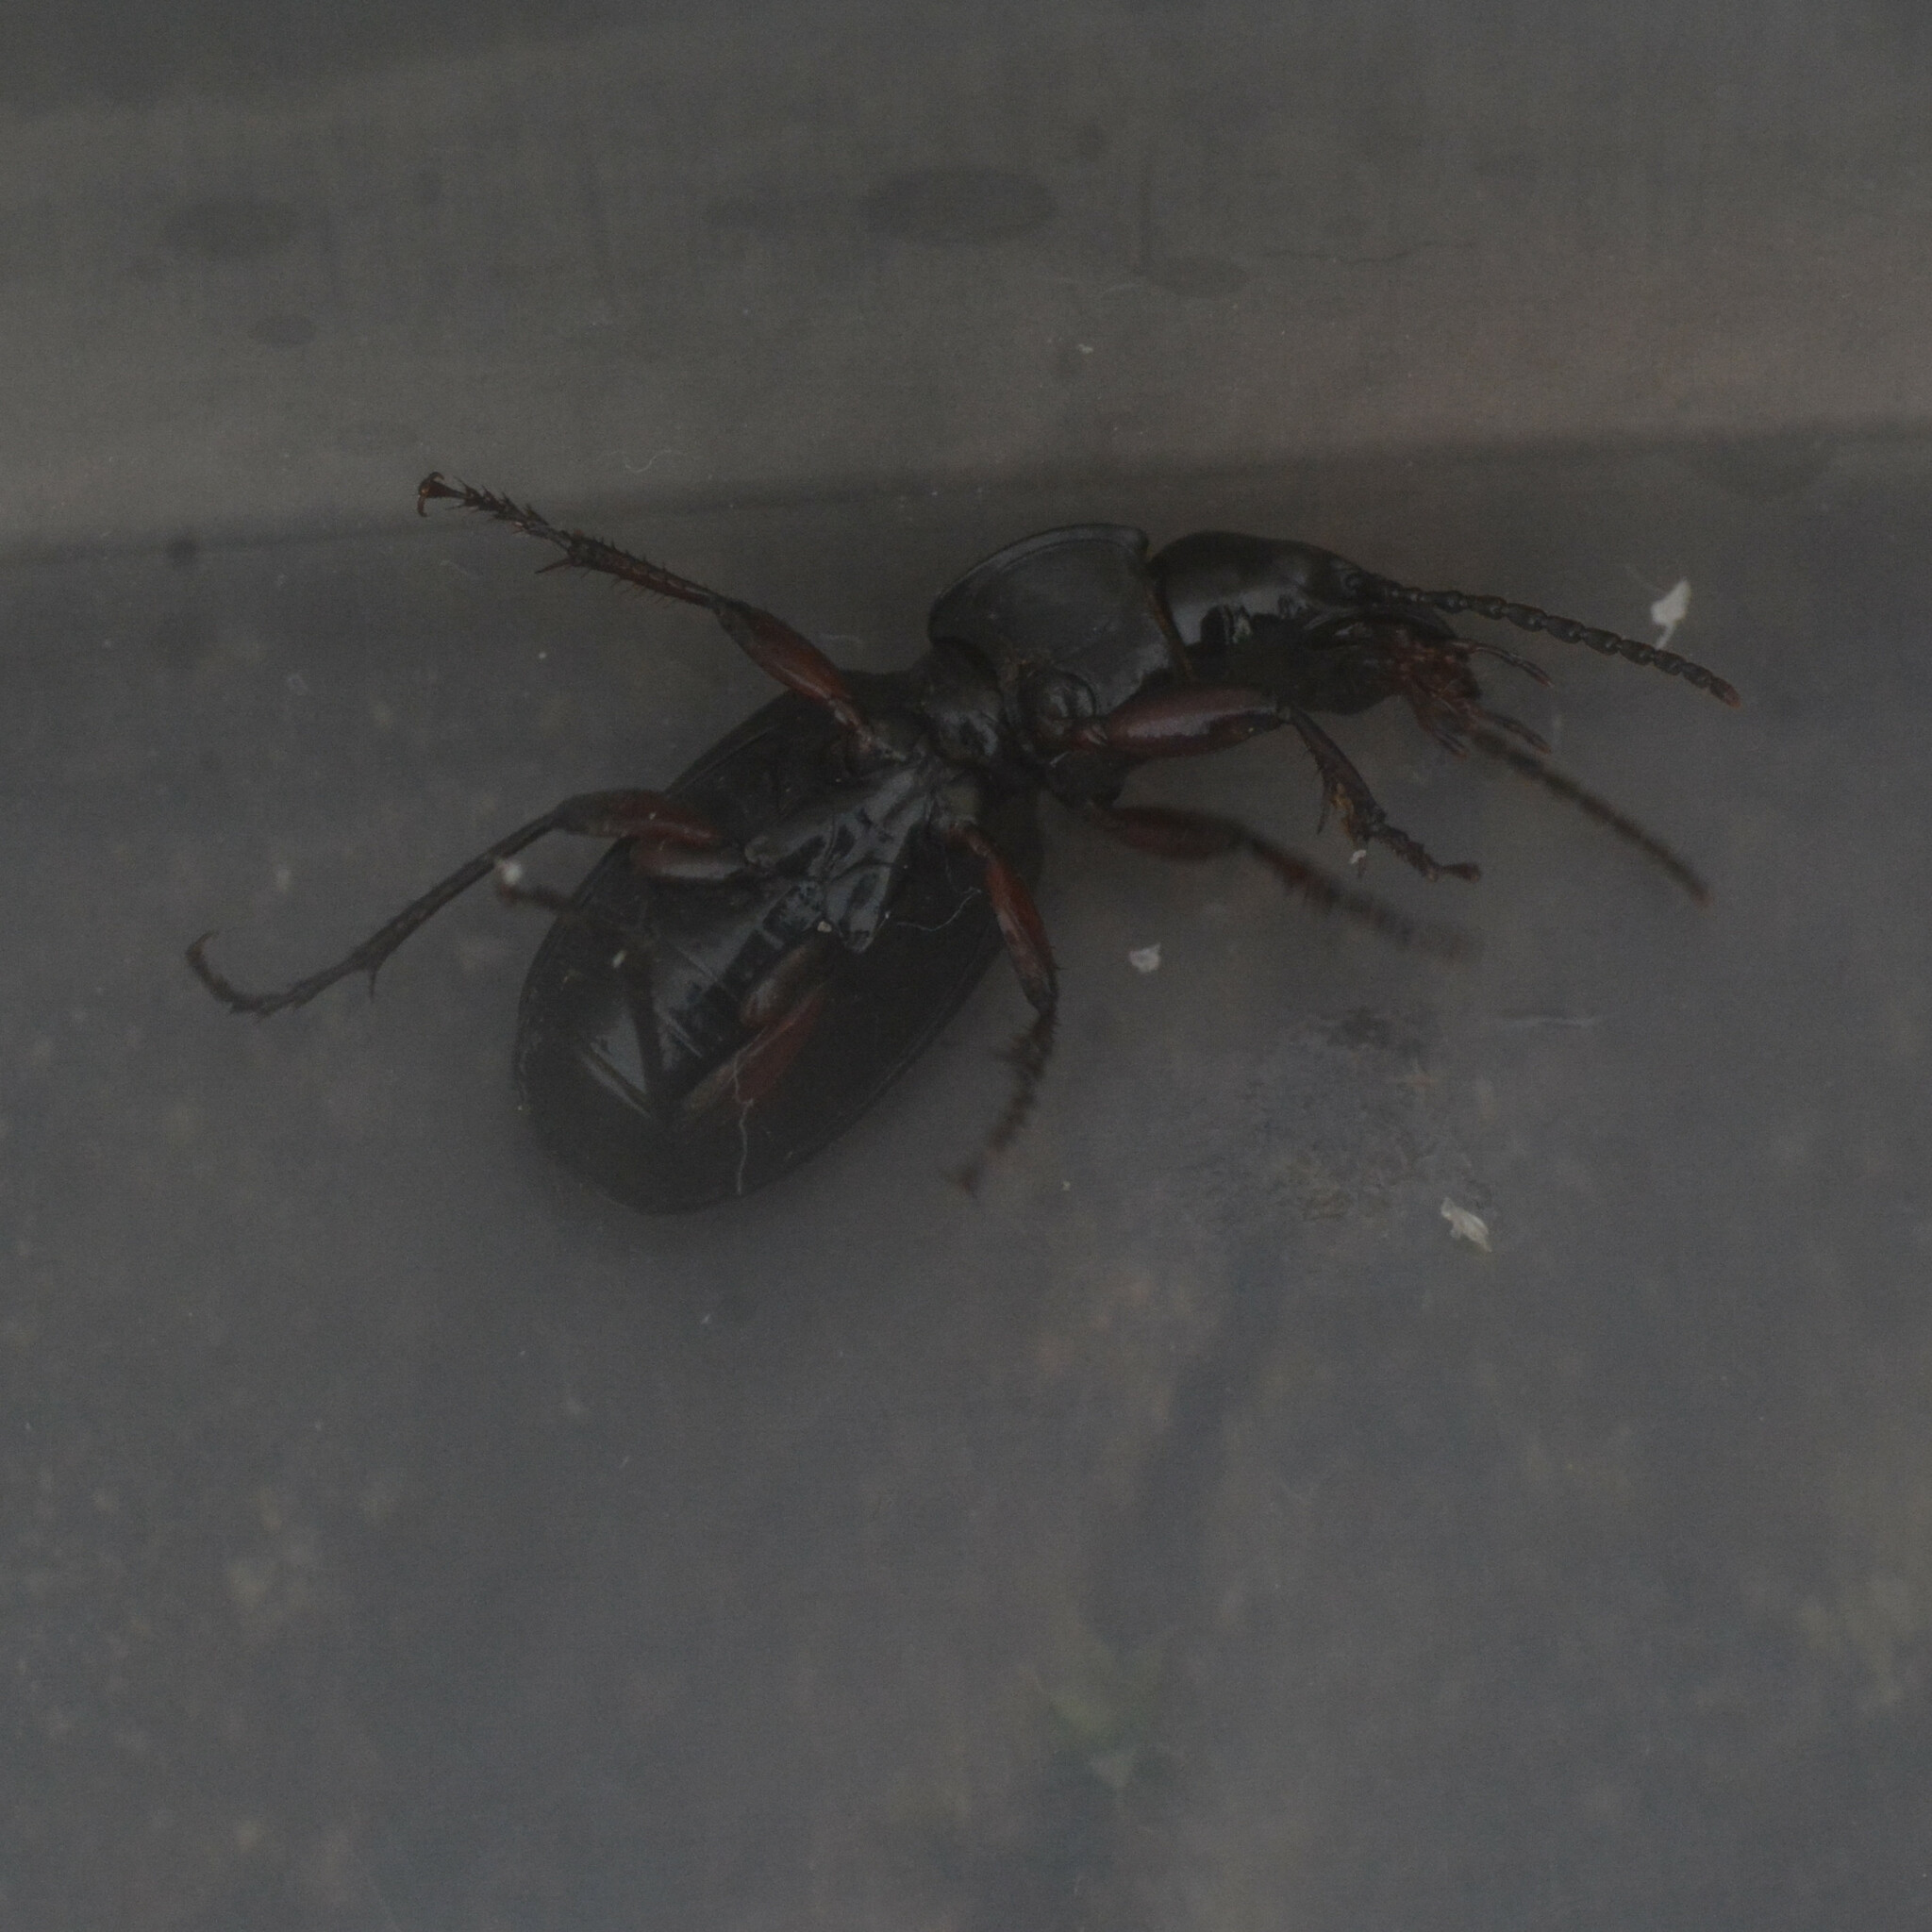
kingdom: Animalia
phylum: Arthropoda
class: Insecta
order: Coleoptera
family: Carabidae
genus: Pterostichus
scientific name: Pterostichus madidus
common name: Black clock
